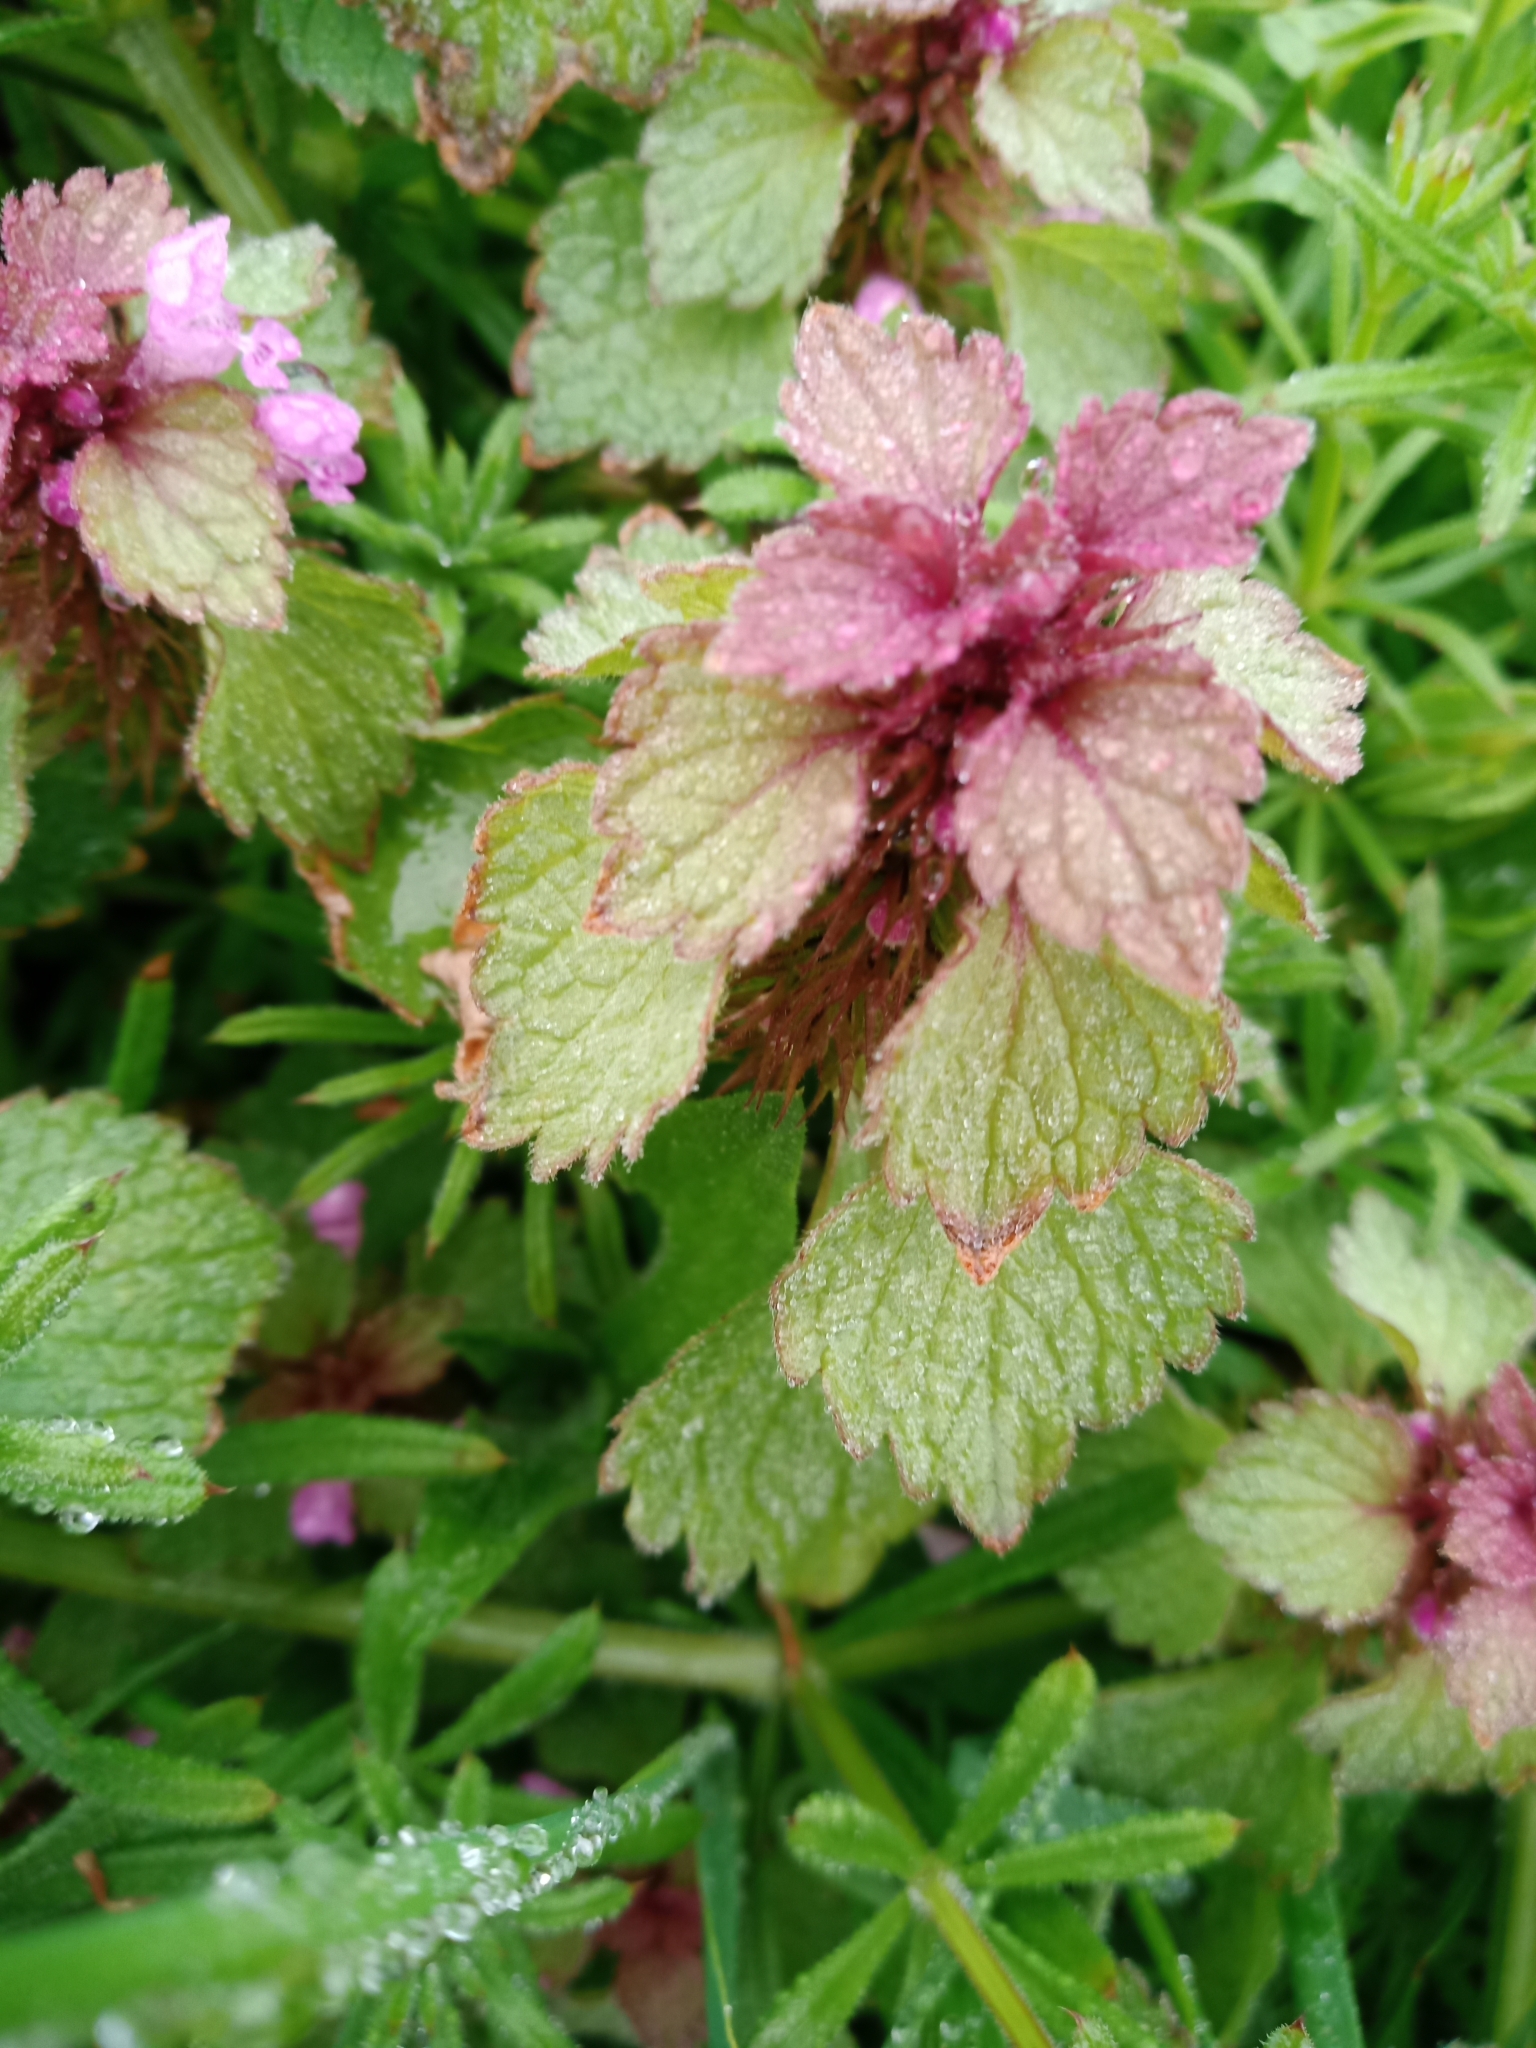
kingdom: Plantae
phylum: Tracheophyta
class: Magnoliopsida
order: Lamiales
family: Lamiaceae
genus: Lamium
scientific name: Lamium purpureum
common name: Red dead-nettle
